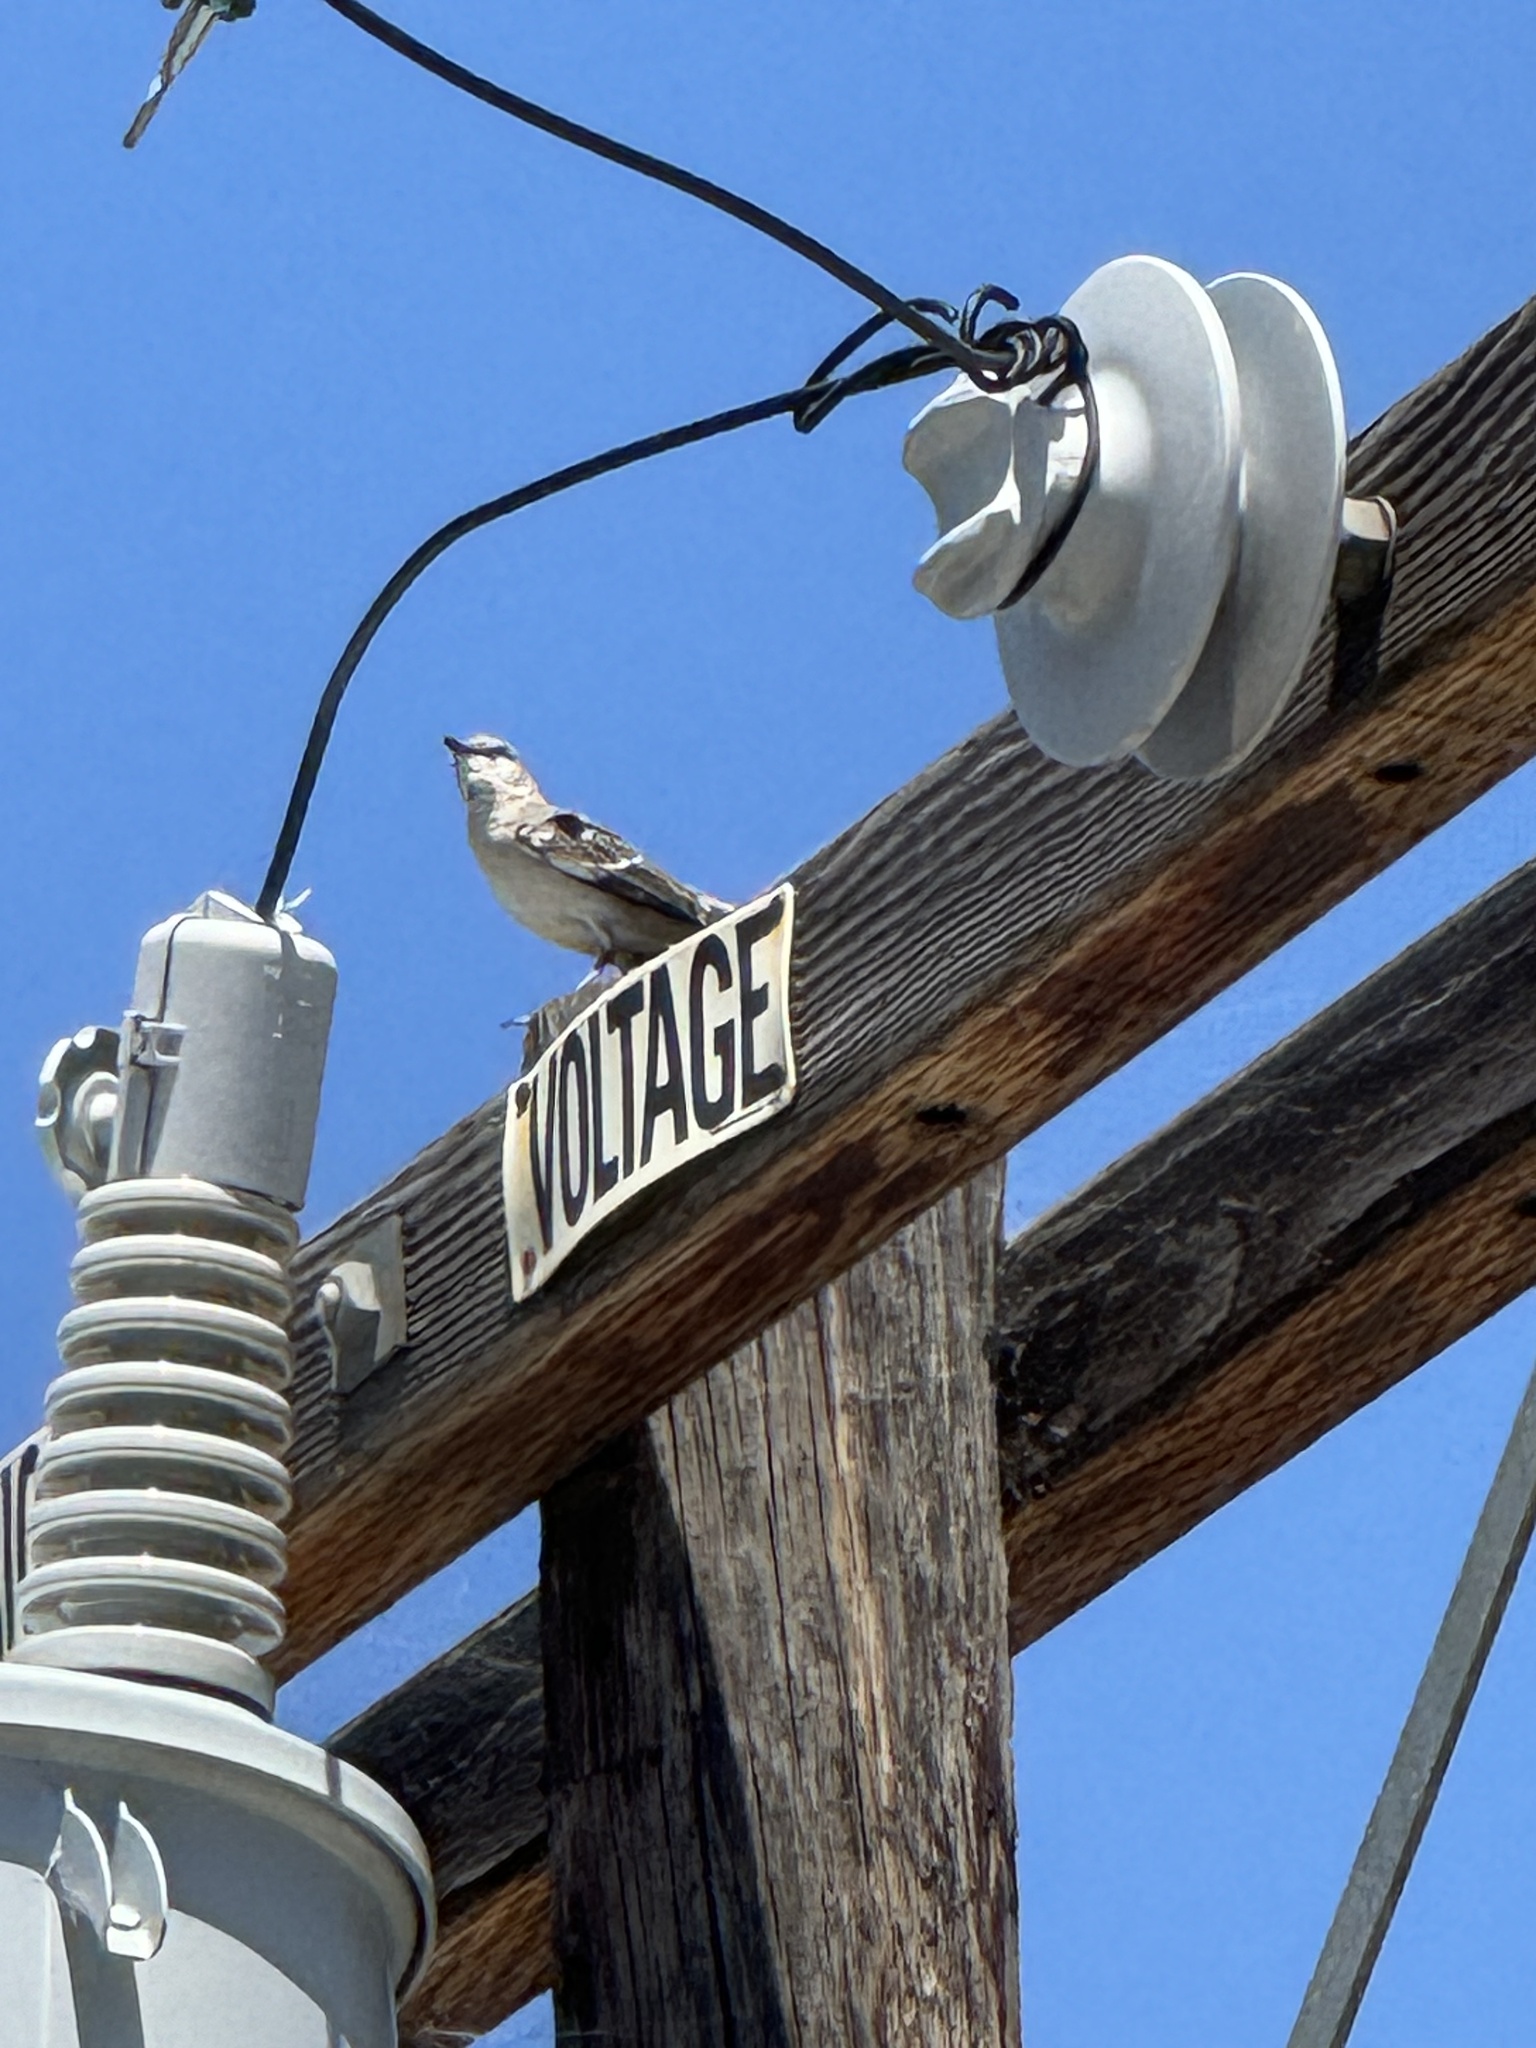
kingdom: Animalia
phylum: Chordata
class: Aves
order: Passeriformes
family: Mimidae
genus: Mimus
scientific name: Mimus polyglottos
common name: Northern mockingbird
